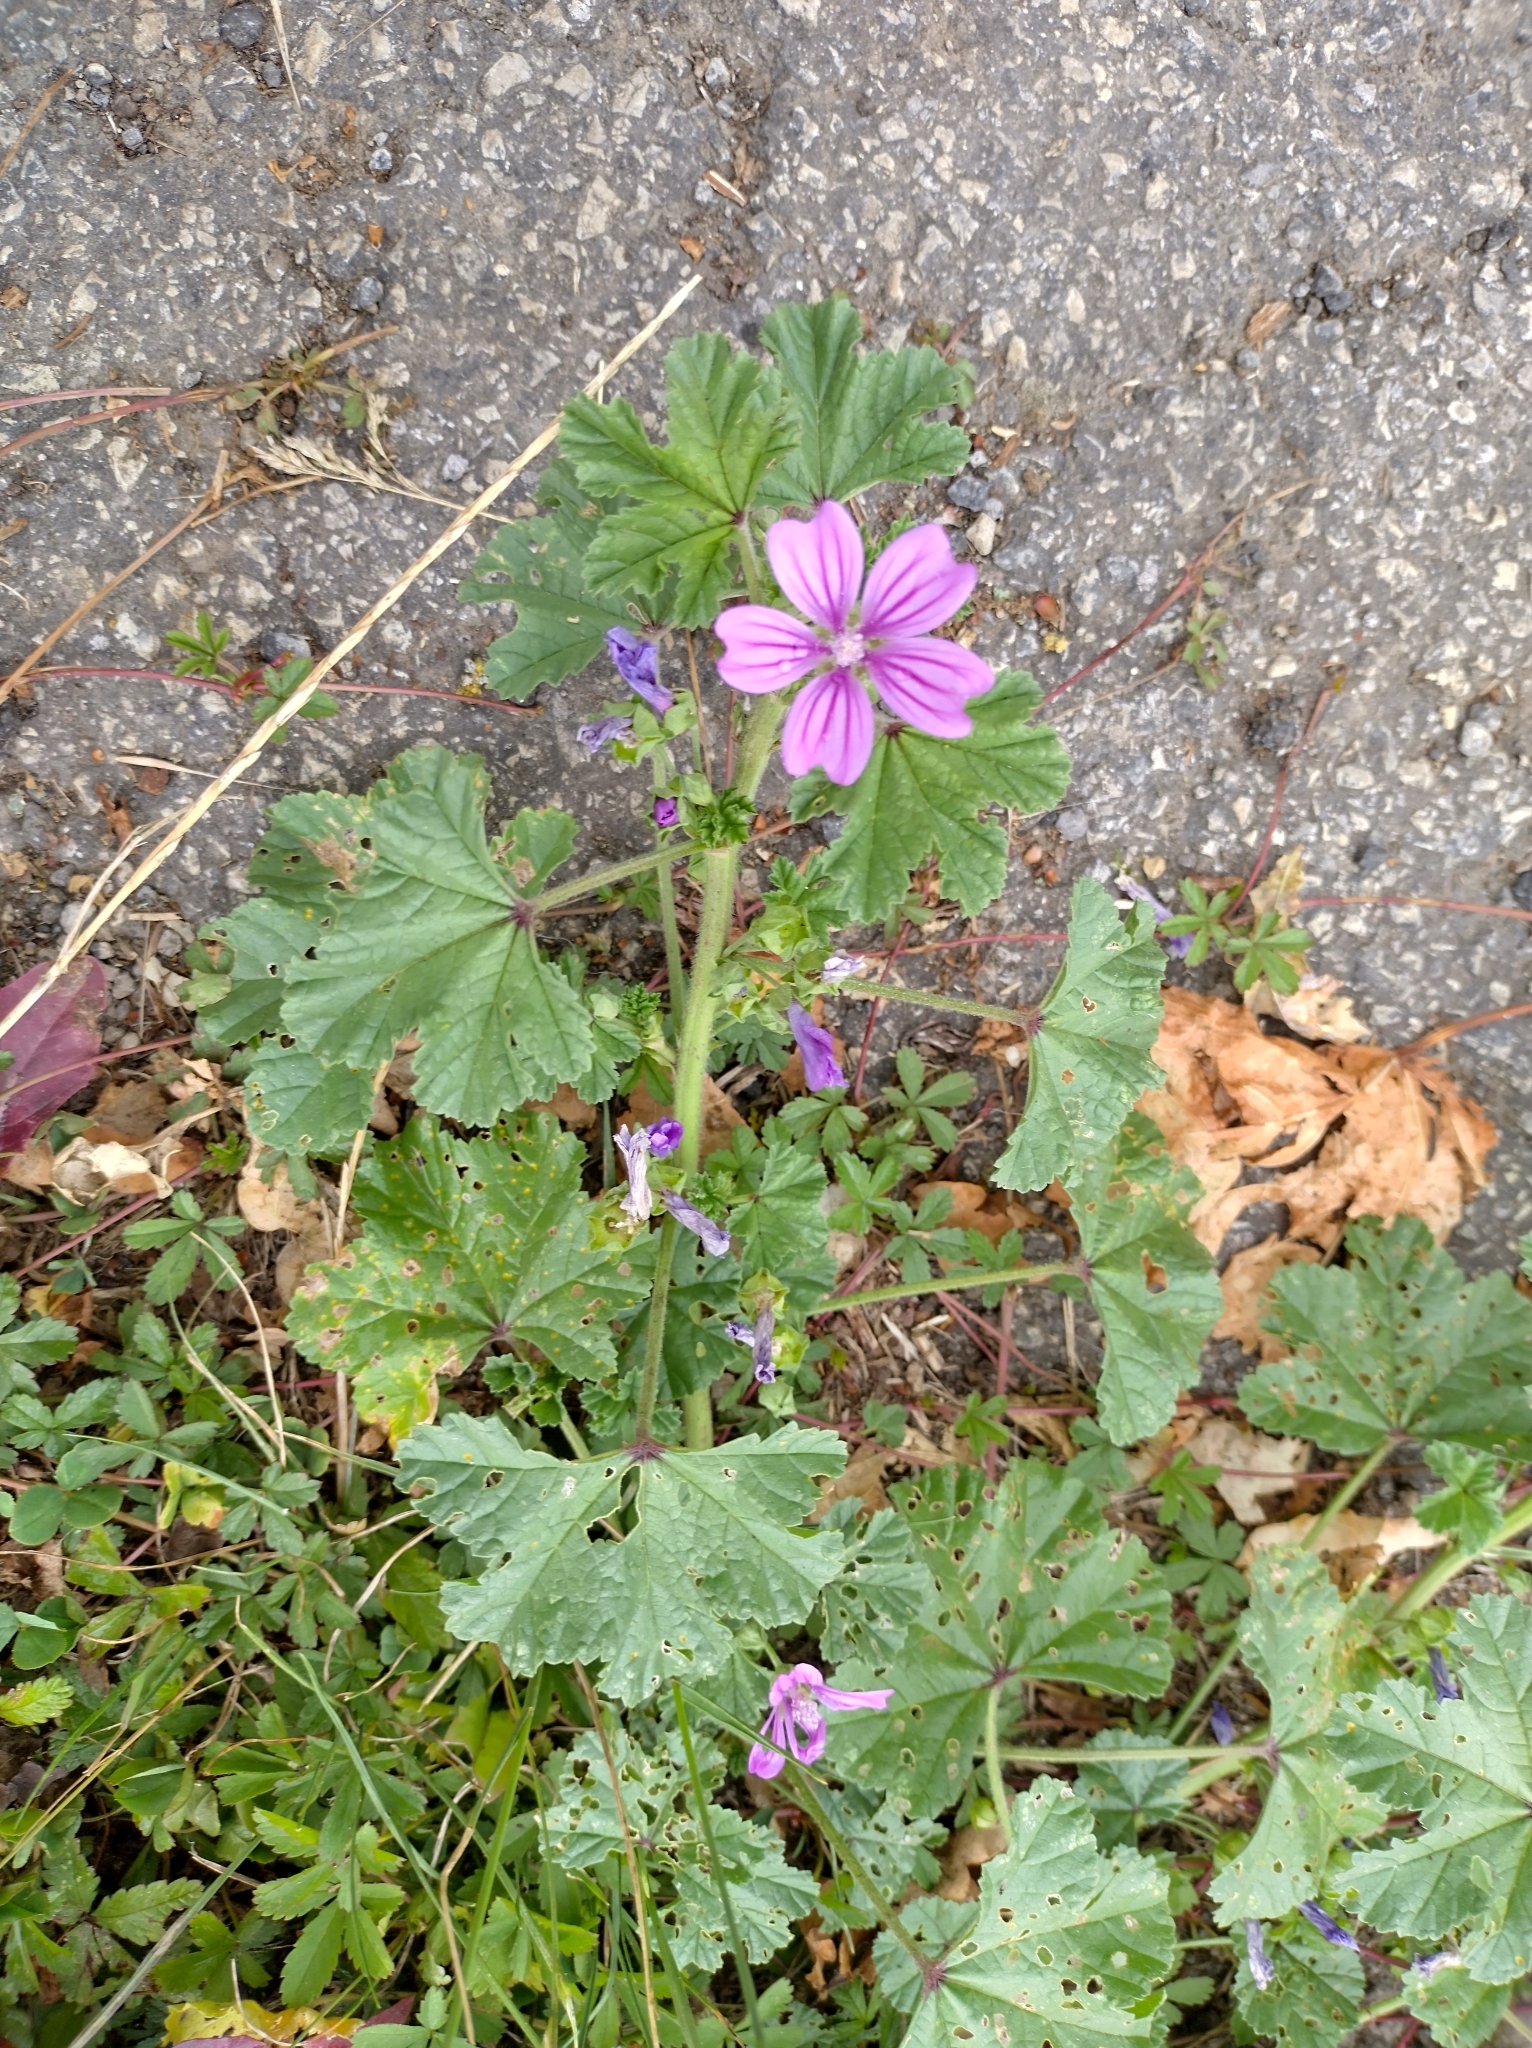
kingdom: Plantae
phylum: Tracheophyta
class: Magnoliopsida
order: Malvales
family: Malvaceae
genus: Malva
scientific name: Malva sylvestris
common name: Common mallow
